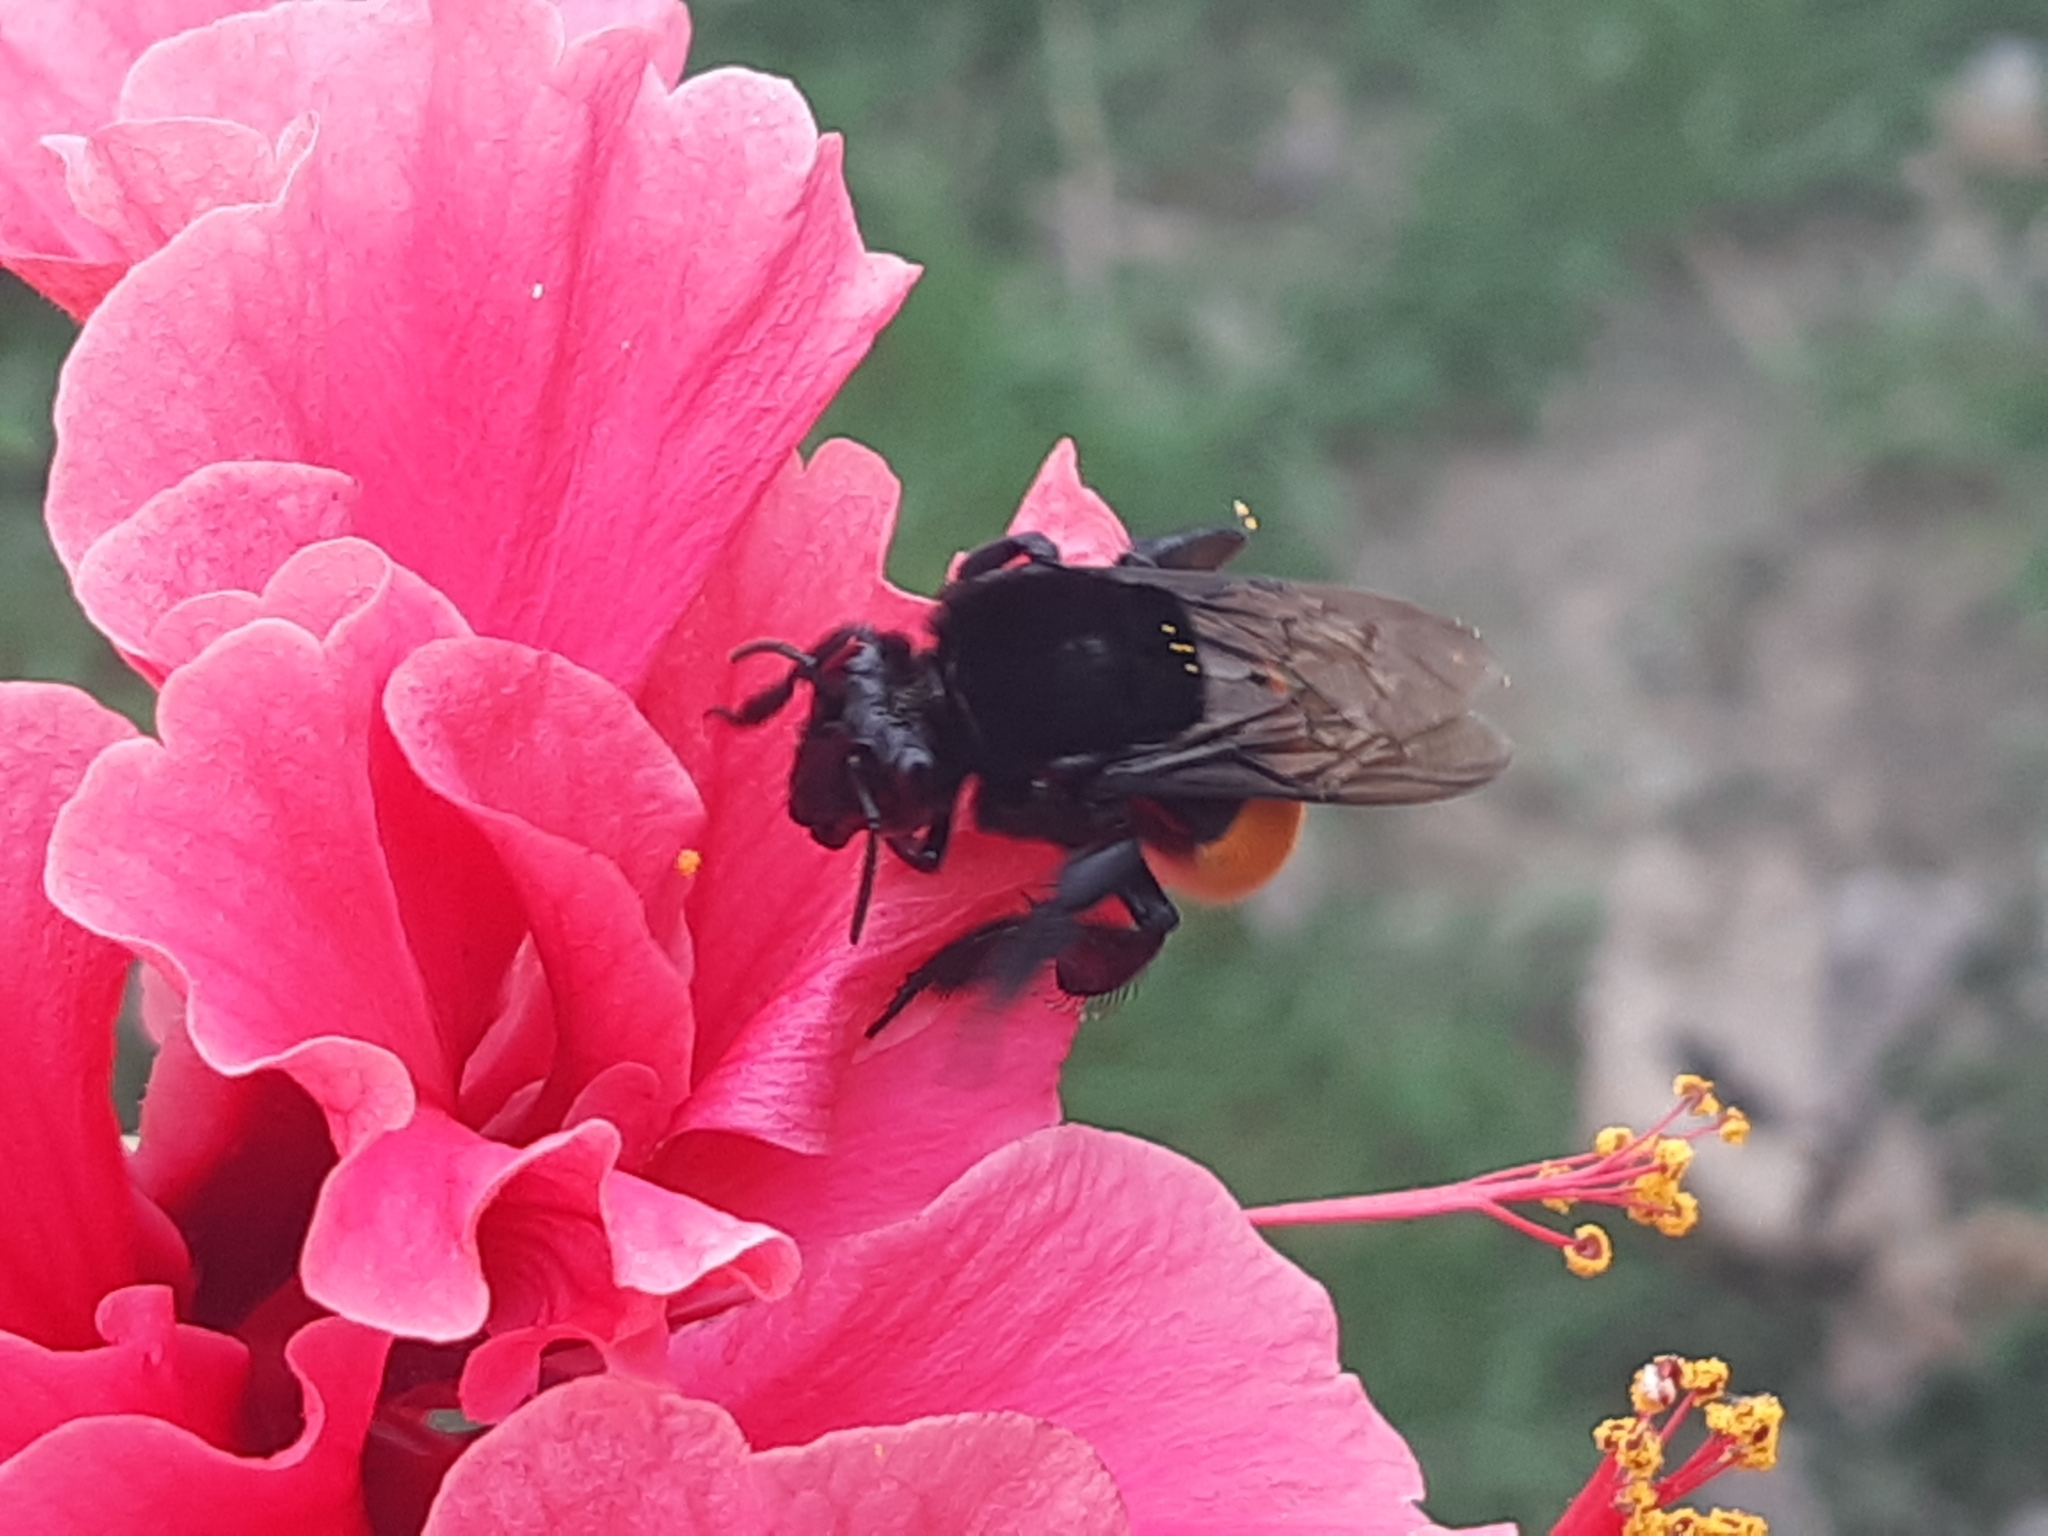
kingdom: Animalia
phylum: Arthropoda
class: Insecta
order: Hymenoptera
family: Apidae
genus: Eulaema
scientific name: Eulaema polychroma
